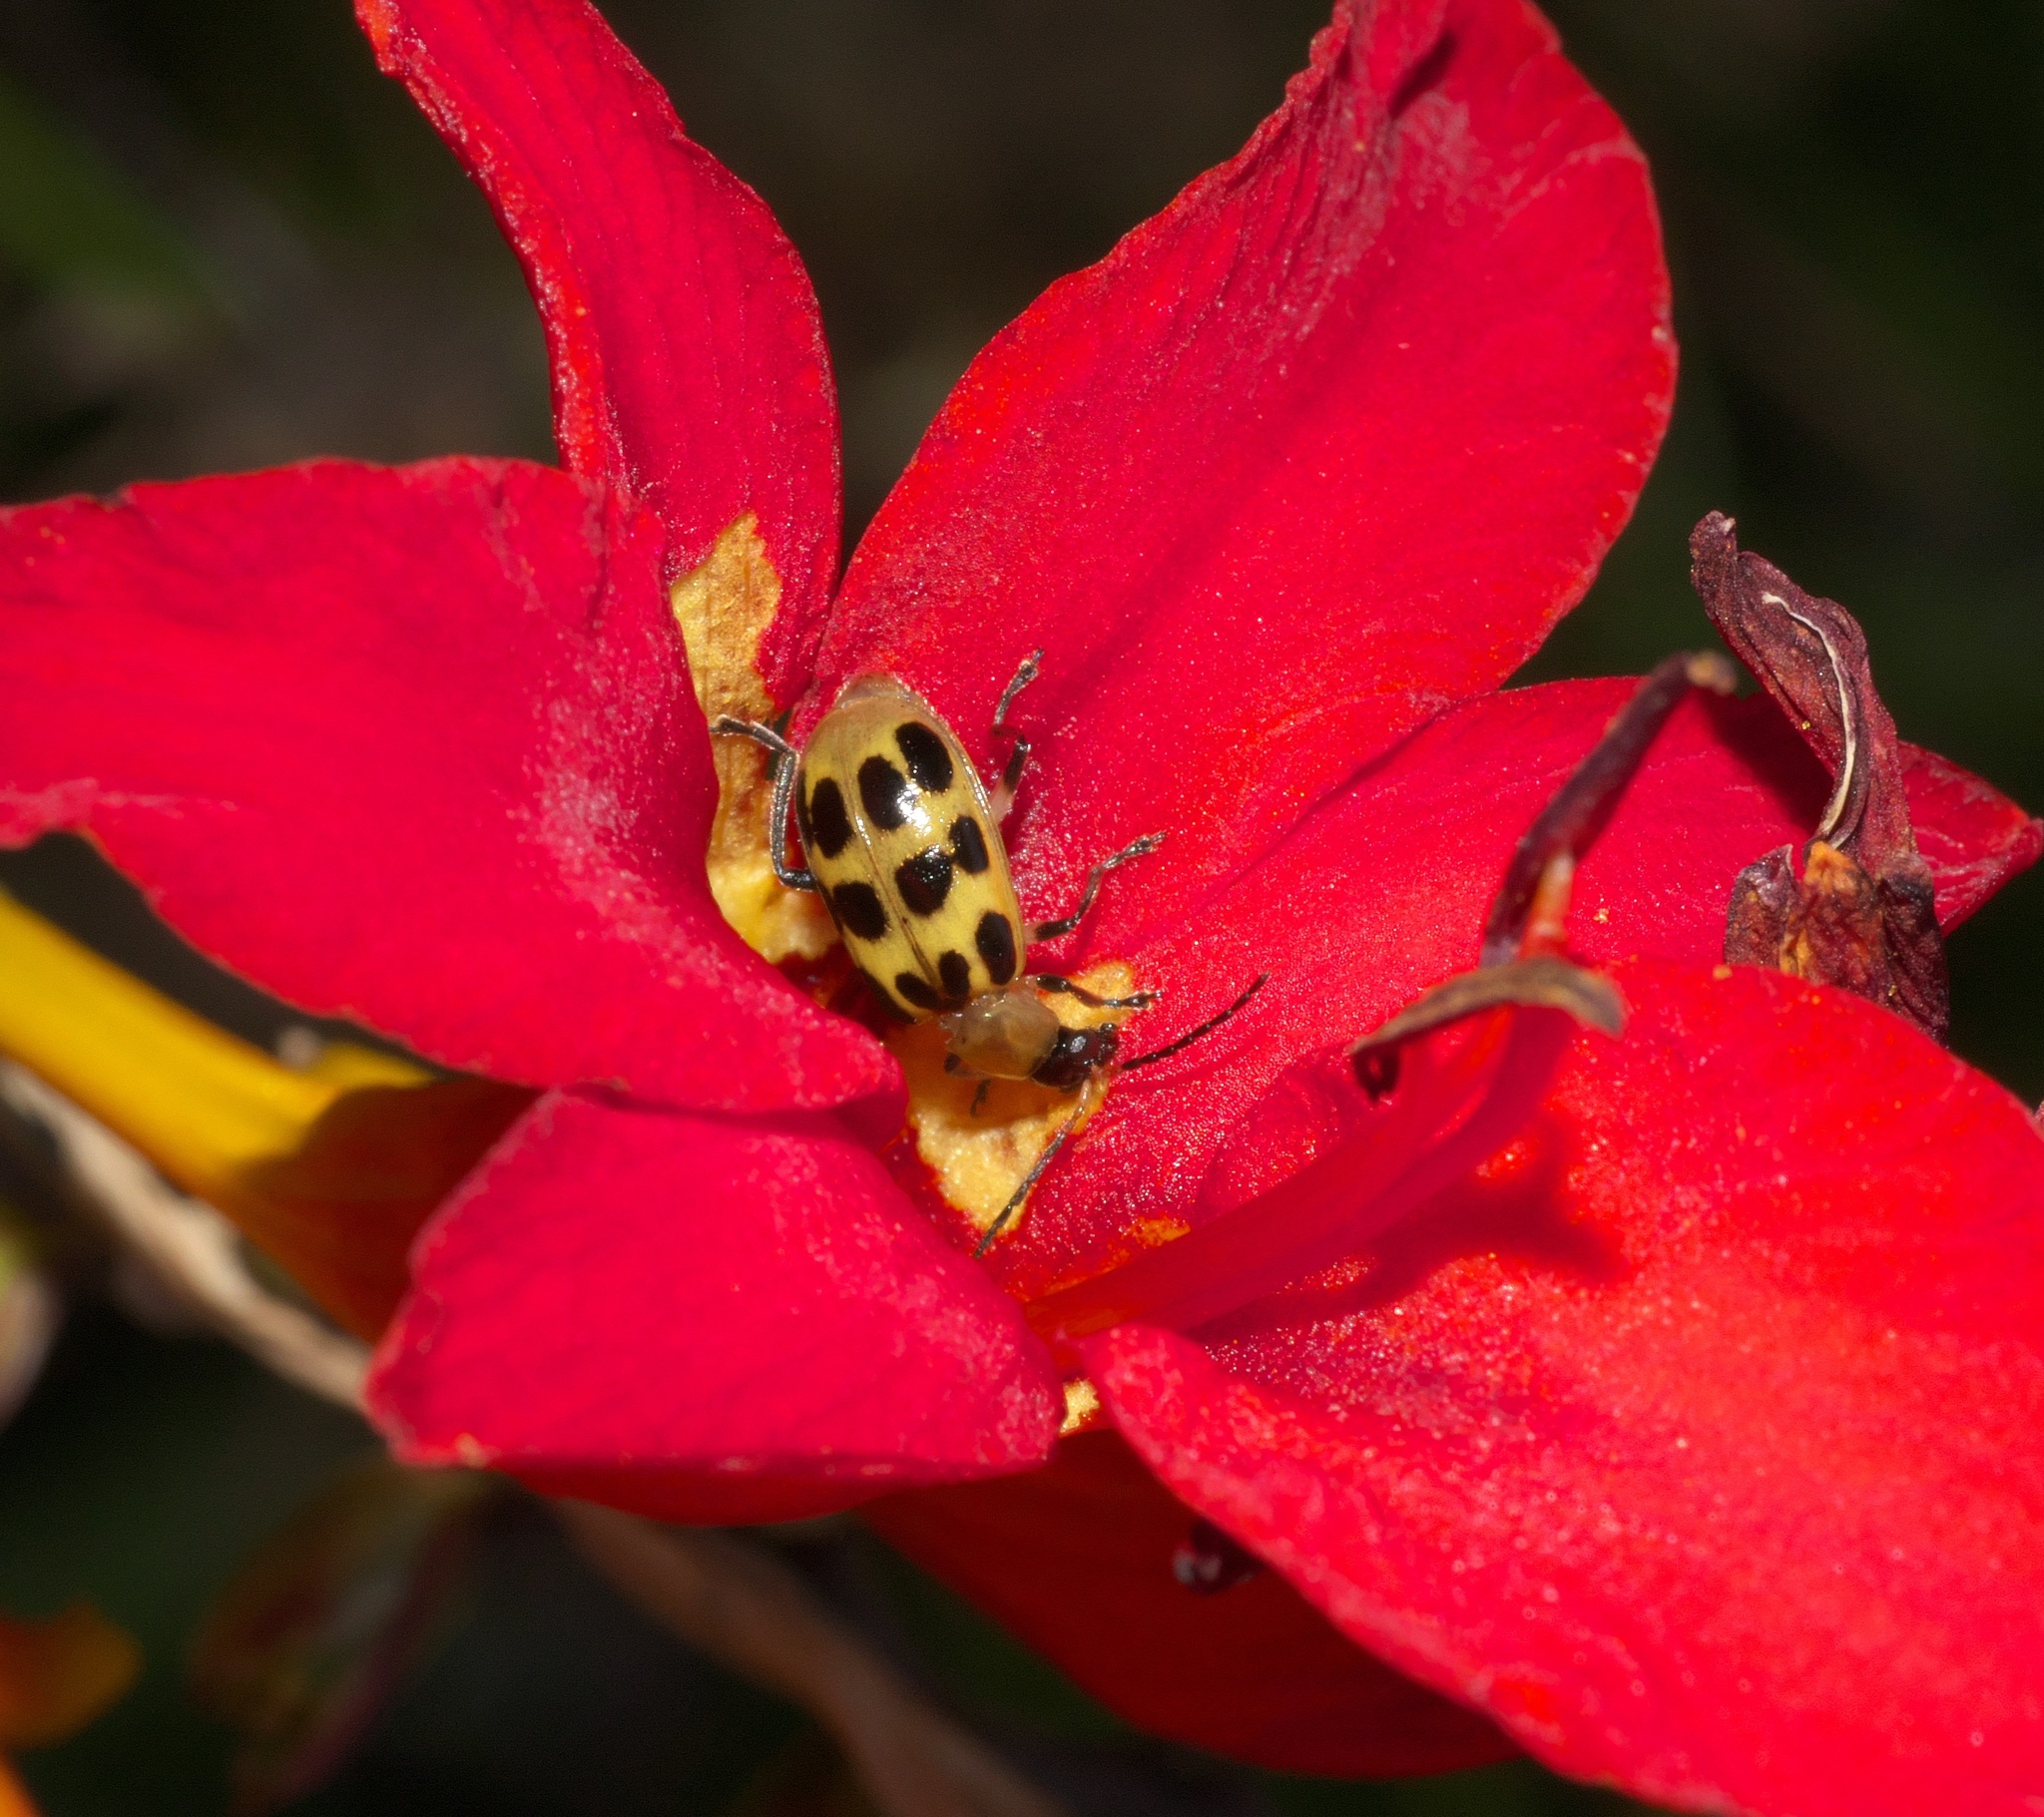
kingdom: Animalia
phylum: Arthropoda
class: Insecta
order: Coleoptera
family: Chrysomelidae
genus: Diabrotica
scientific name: Diabrotica undecimpunctata
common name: Spotted cucumber beetle
